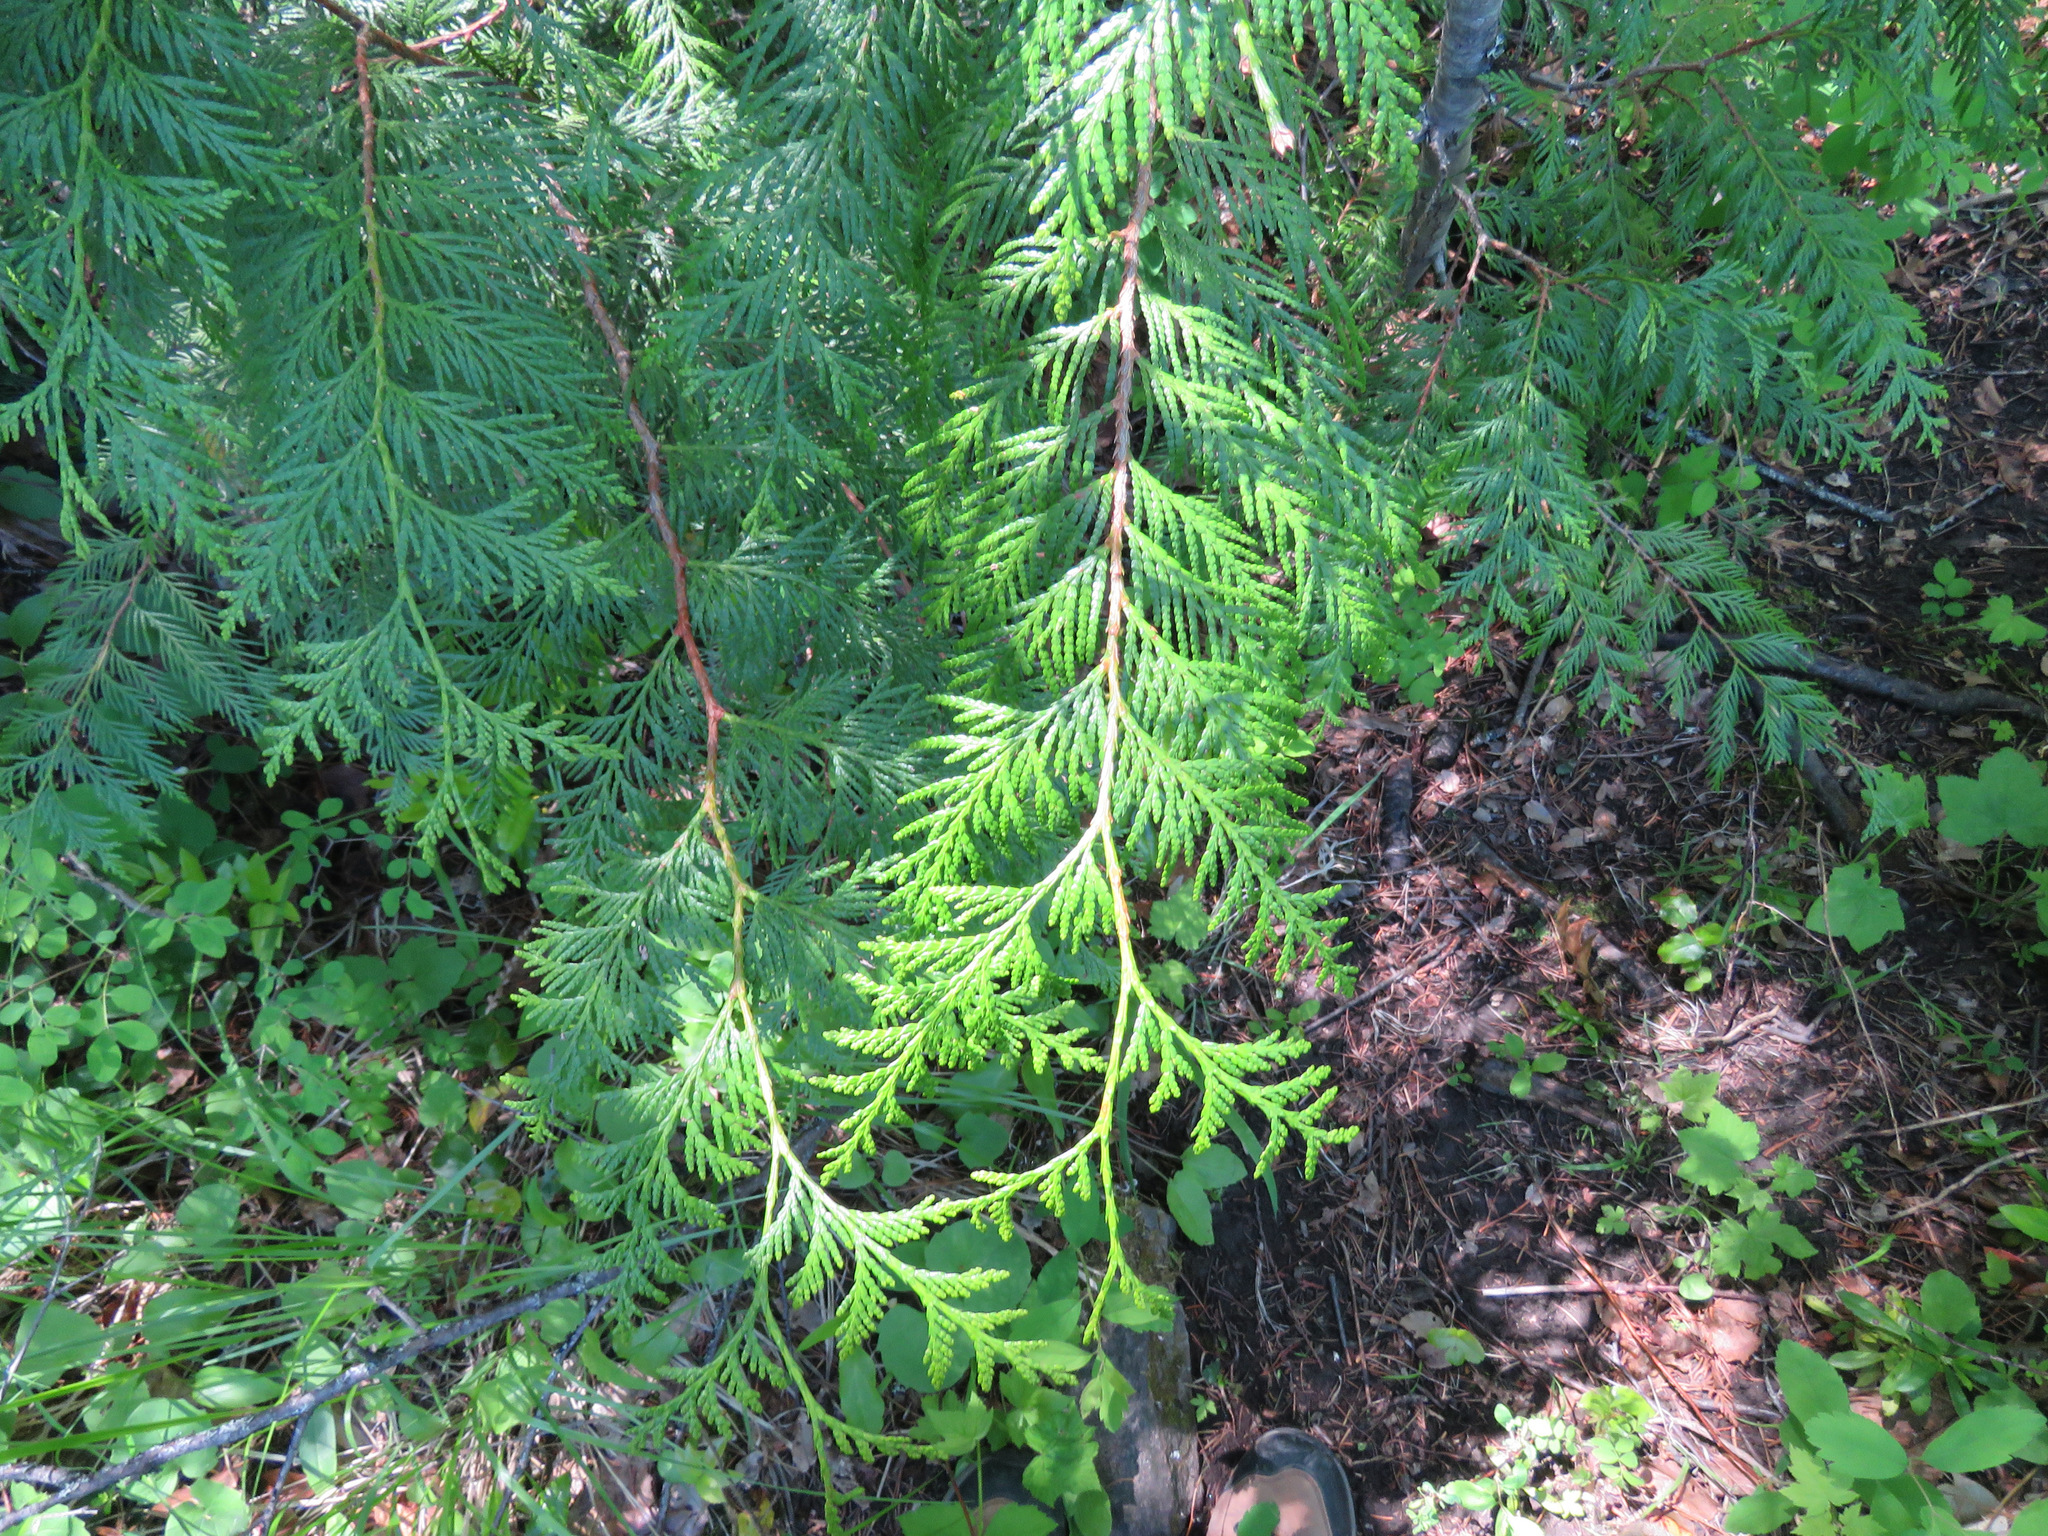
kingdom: Plantae
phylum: Tracheophyta
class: Pinopsida
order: Pinales
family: Cupressaceae
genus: Thuja
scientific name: Thuja plicata
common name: Western red-cedar
